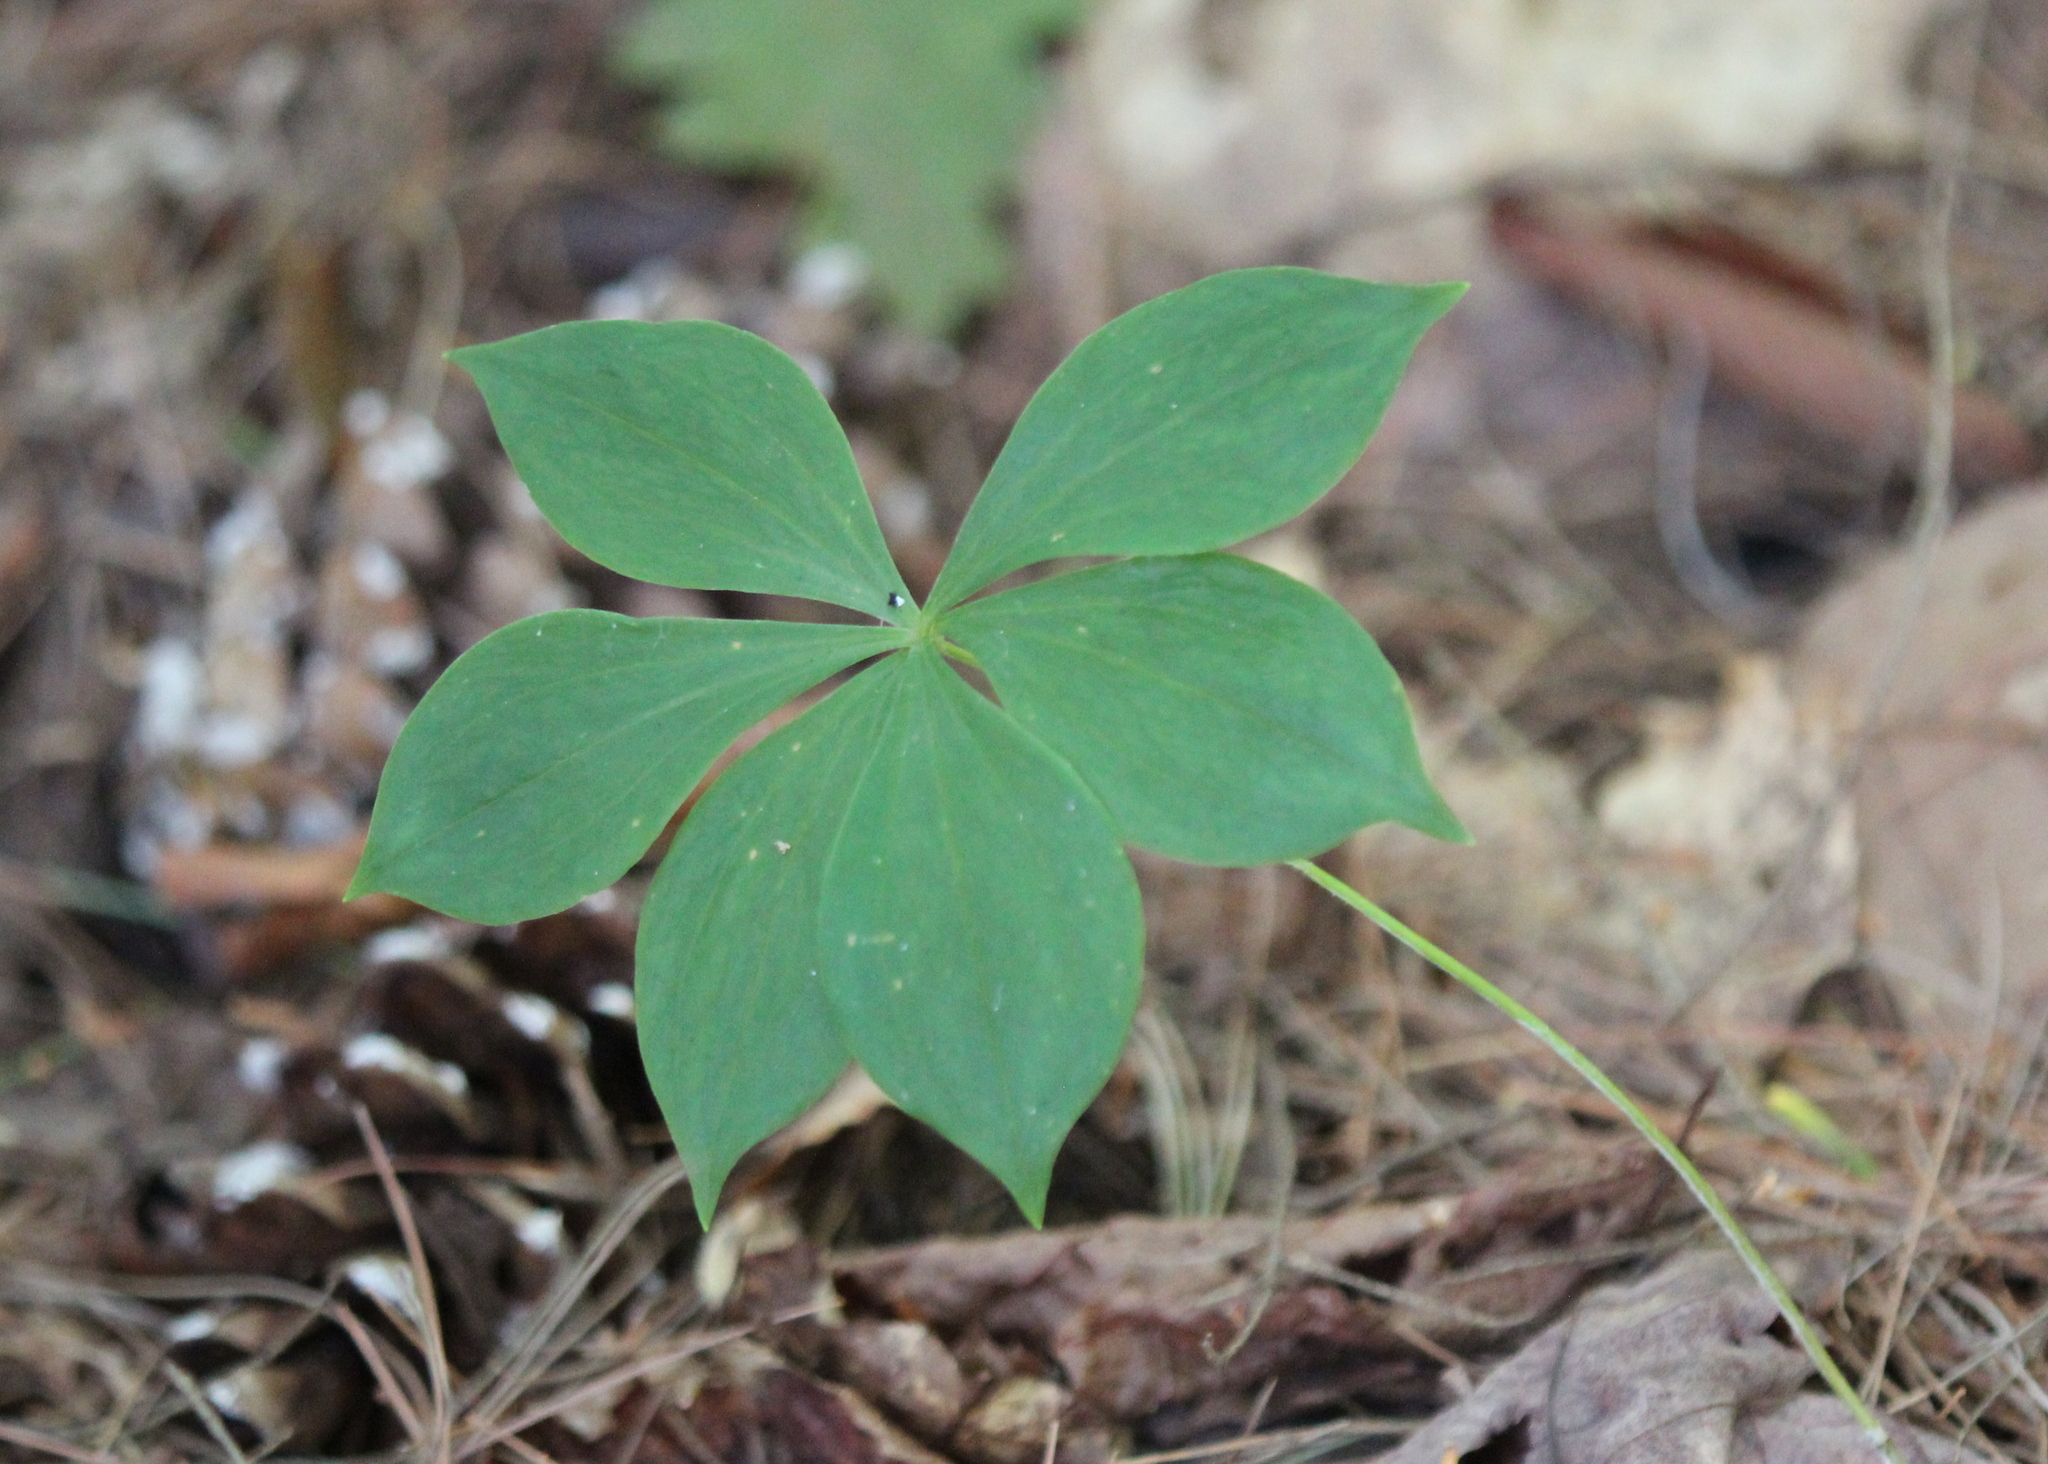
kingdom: Plantae
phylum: Tracheophyta
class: Liliopsida
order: Liliales
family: Liliaceae
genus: Medeola
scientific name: Medeola virginiana
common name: Indian cucumber-root
